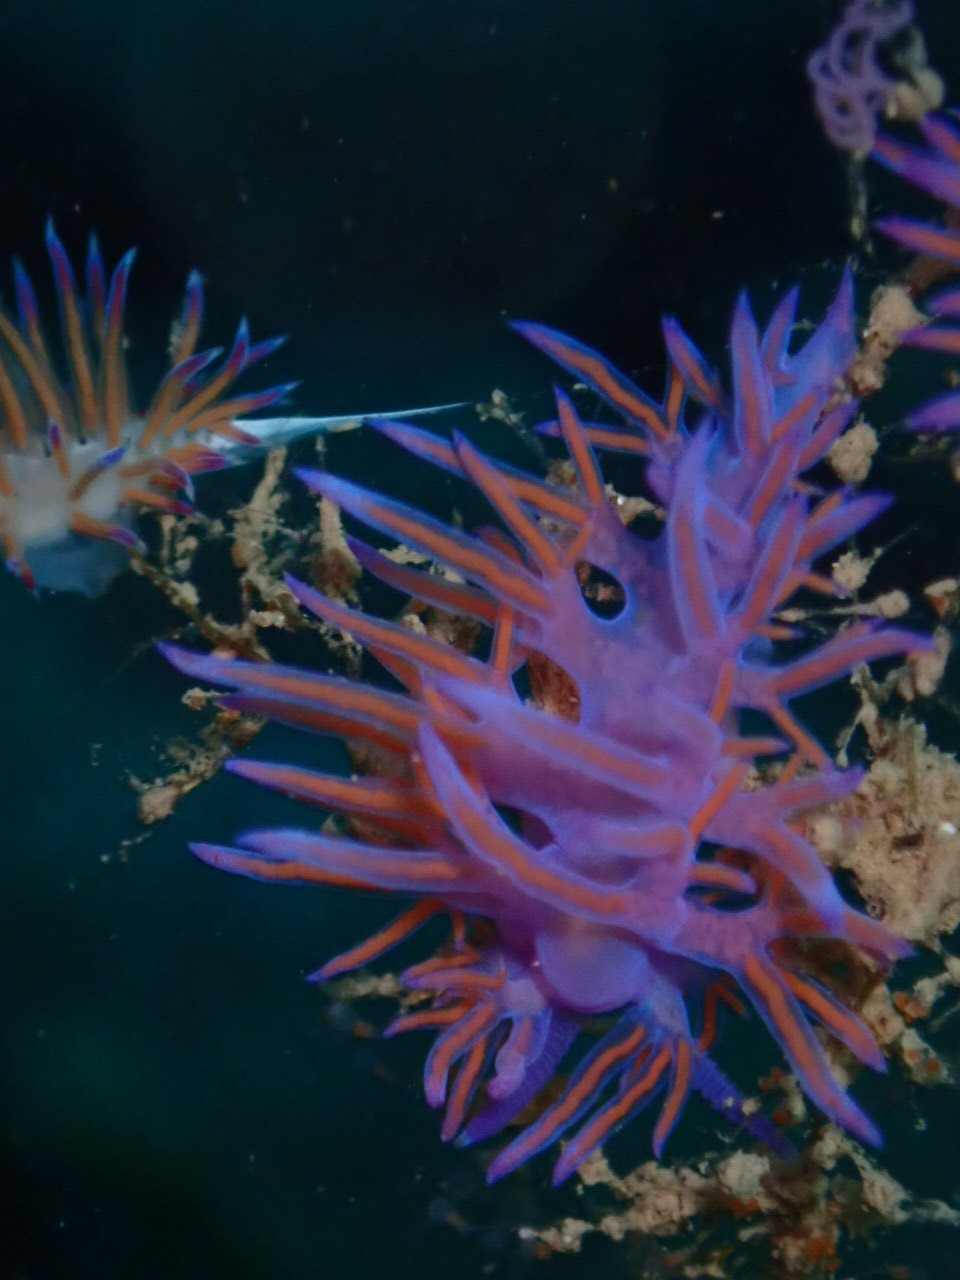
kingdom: Animalia
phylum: Mollusca
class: Gastropoda
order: Nudibranchia
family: Flabellinidae
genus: Flabellina
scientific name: Flabellina affinis
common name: Mediterranean violet aeolid
